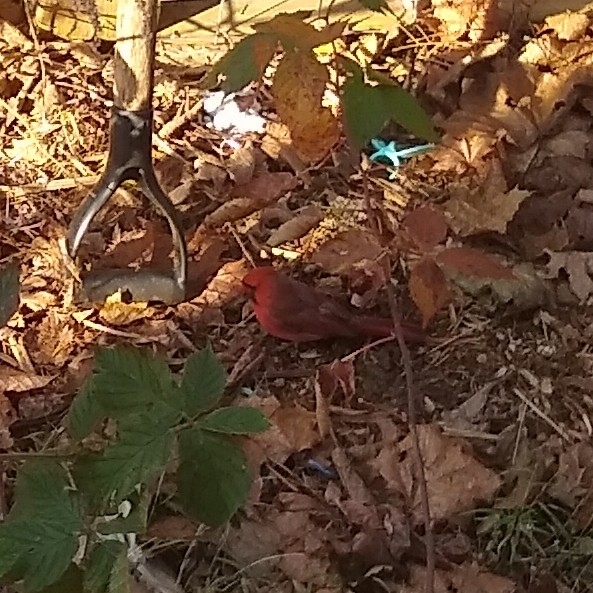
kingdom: Animalia
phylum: Chordata
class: Aves
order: Passeriformes
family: Cardinalidae
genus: Cardinalis
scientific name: Cardinalis cardinalis
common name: Northern cardinal
